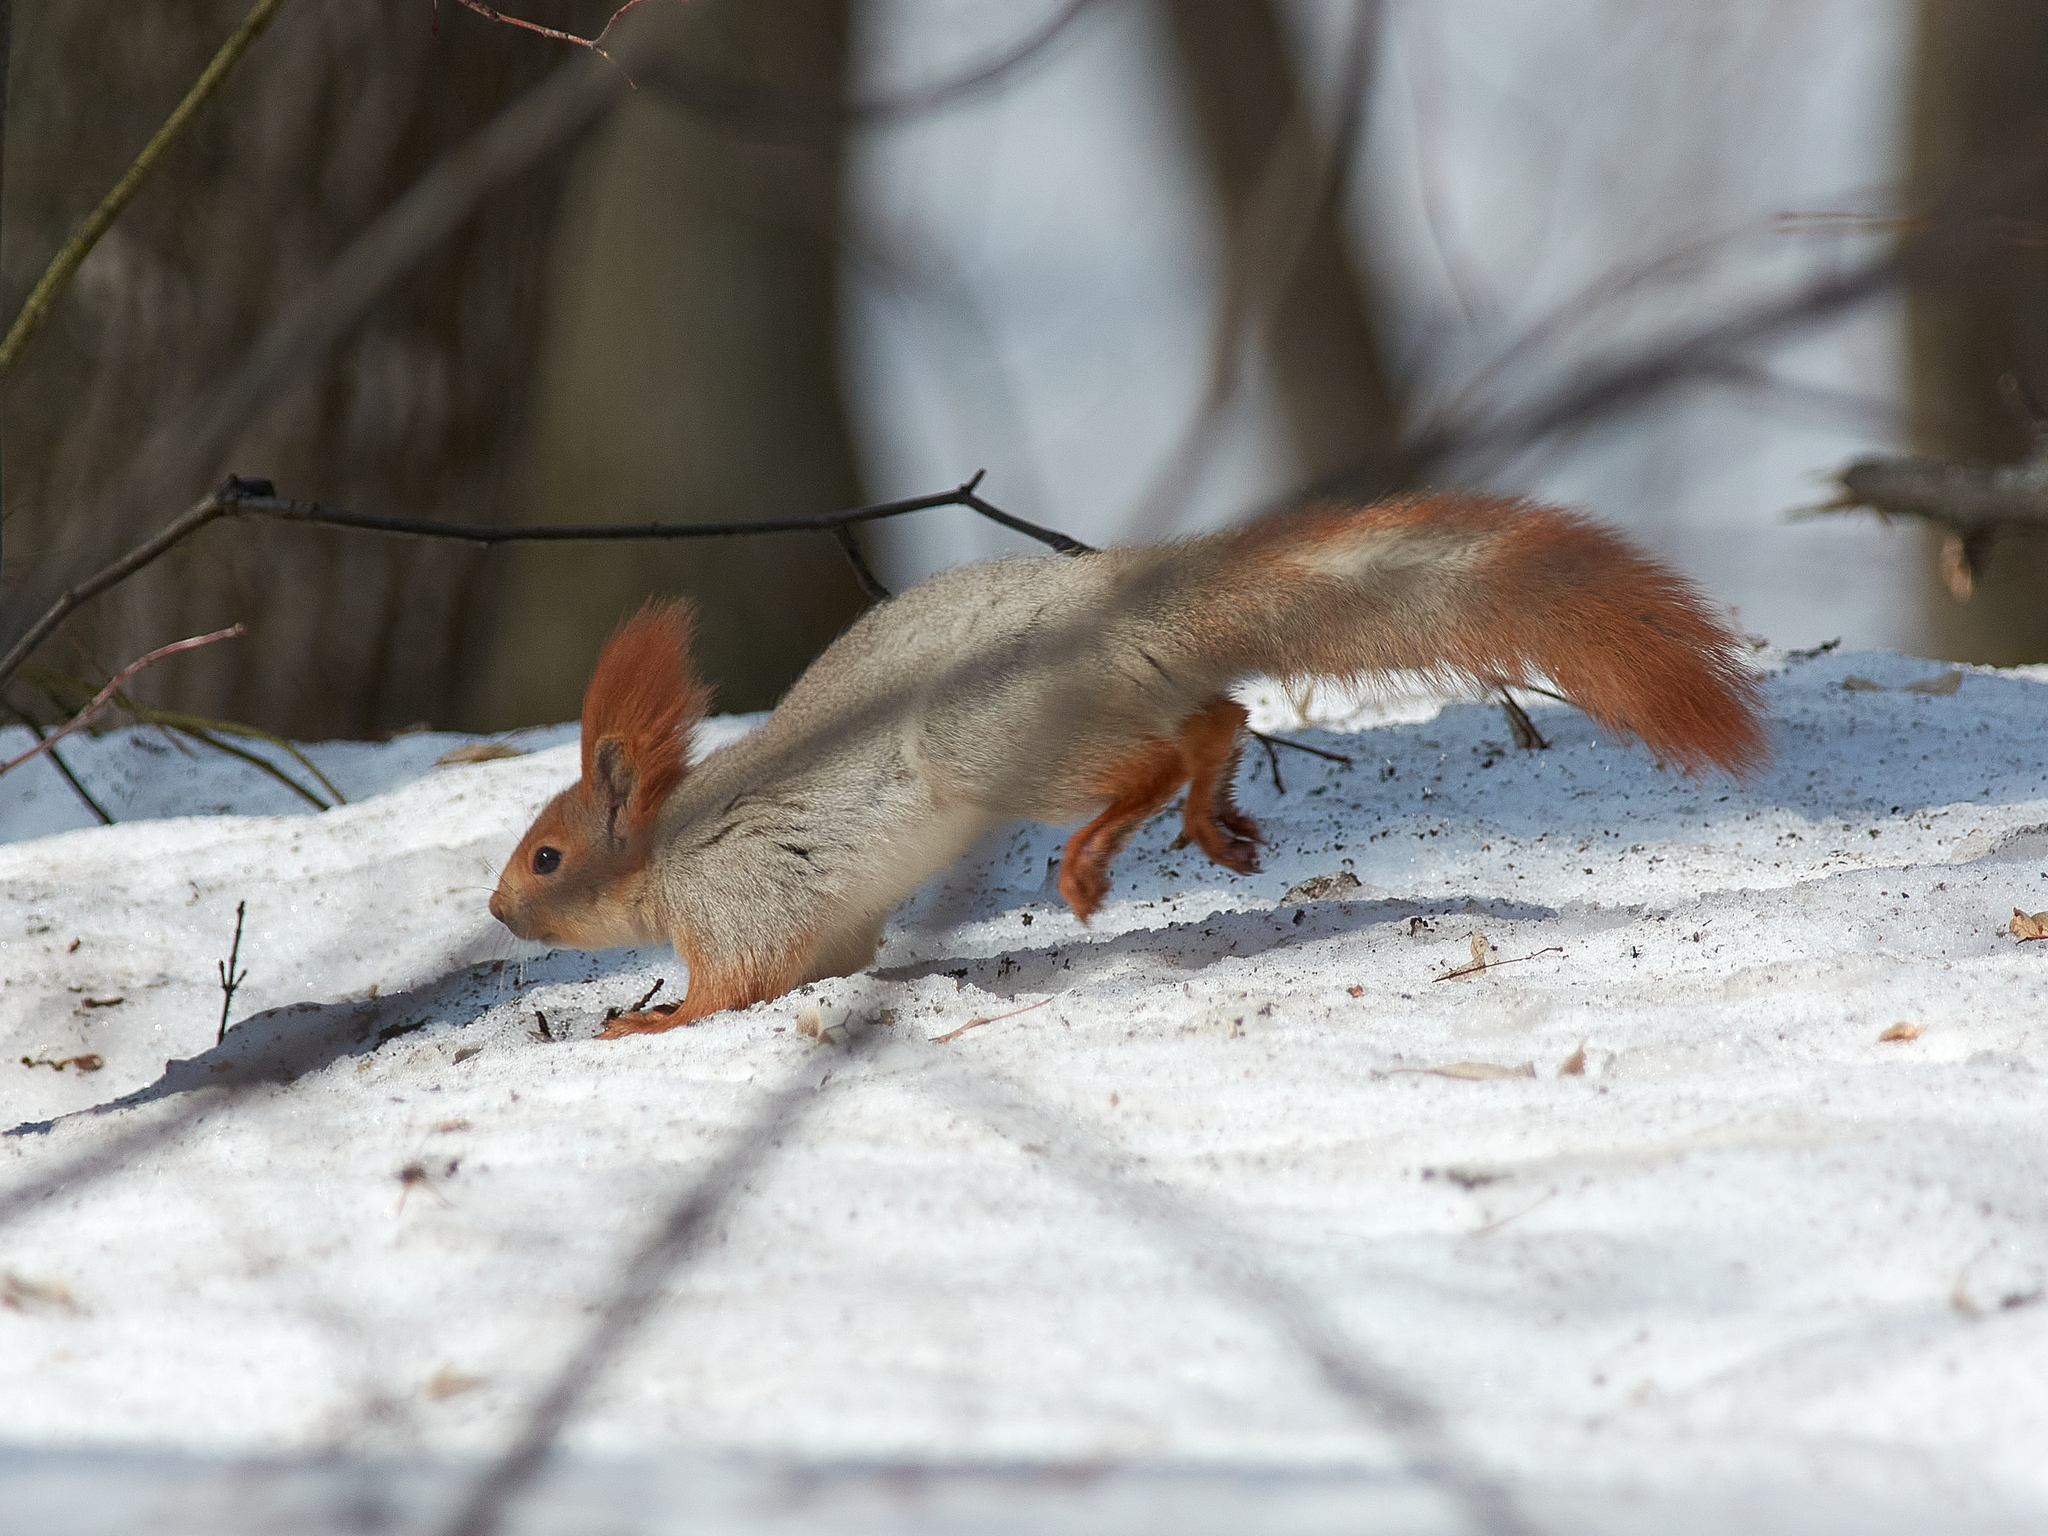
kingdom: Animalia
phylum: Chordata
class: Mammalia
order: Rodentia
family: Sciuridae
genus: Sciurus
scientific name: Sciurus vulgaris
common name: Eurasian red squirrel
